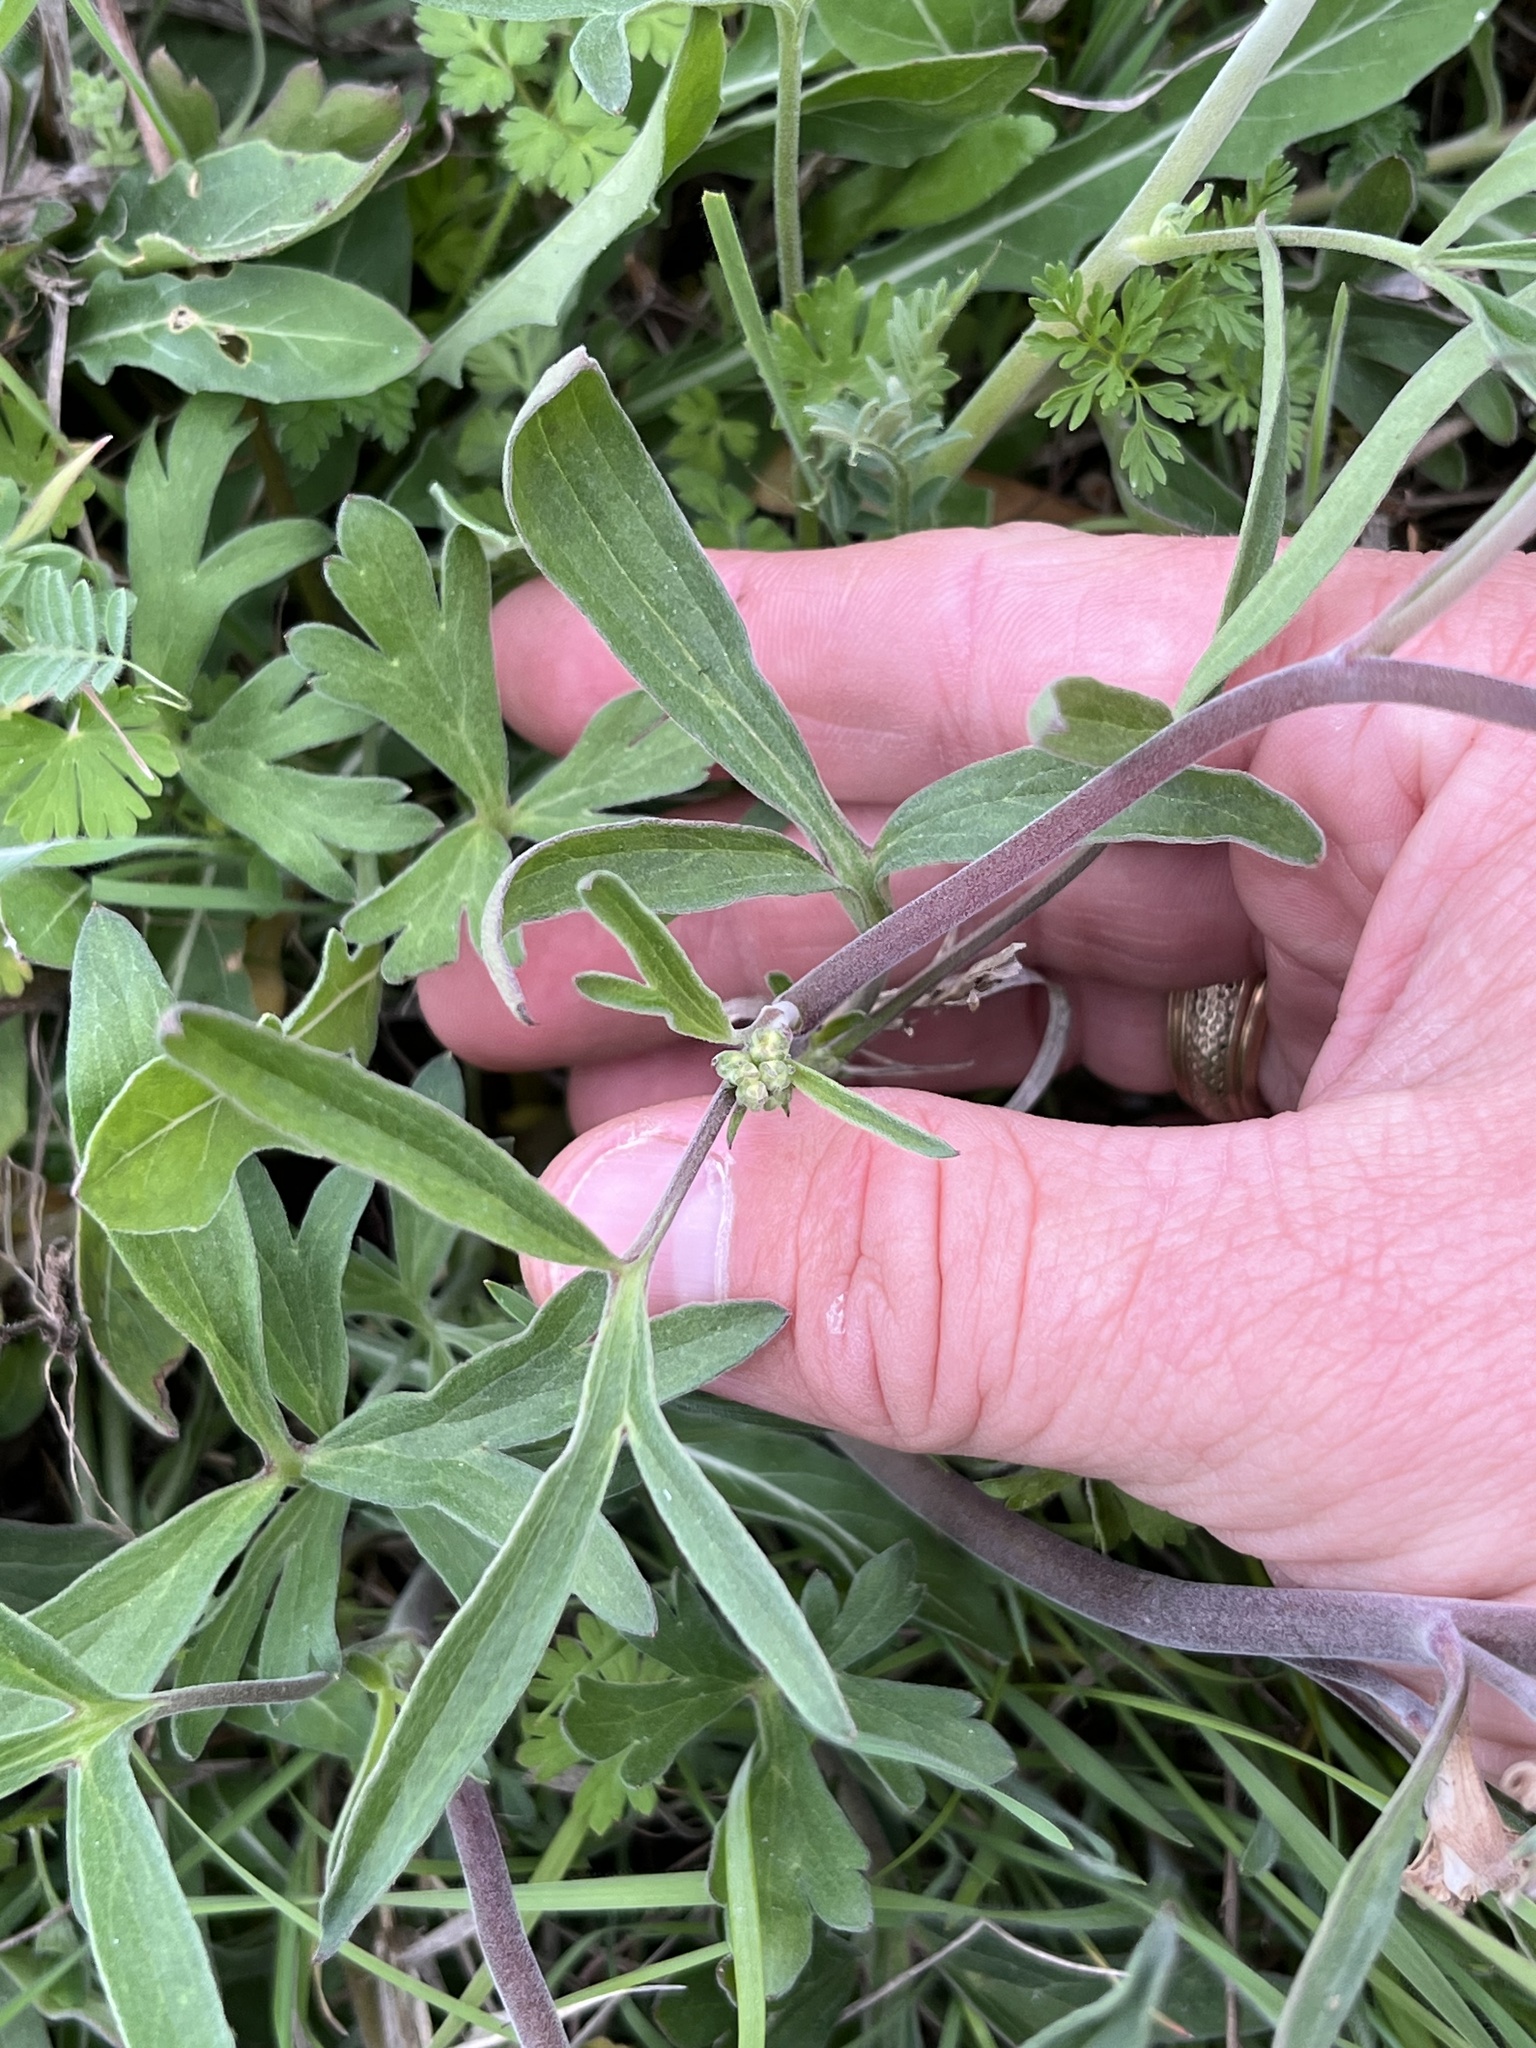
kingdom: Plantae
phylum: Tracheophyta
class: Magnoliopsida
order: Ranunculales
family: Ranunculaceae
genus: Delphinium
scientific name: Delphinium carolinianum
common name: Carolina larkspur
